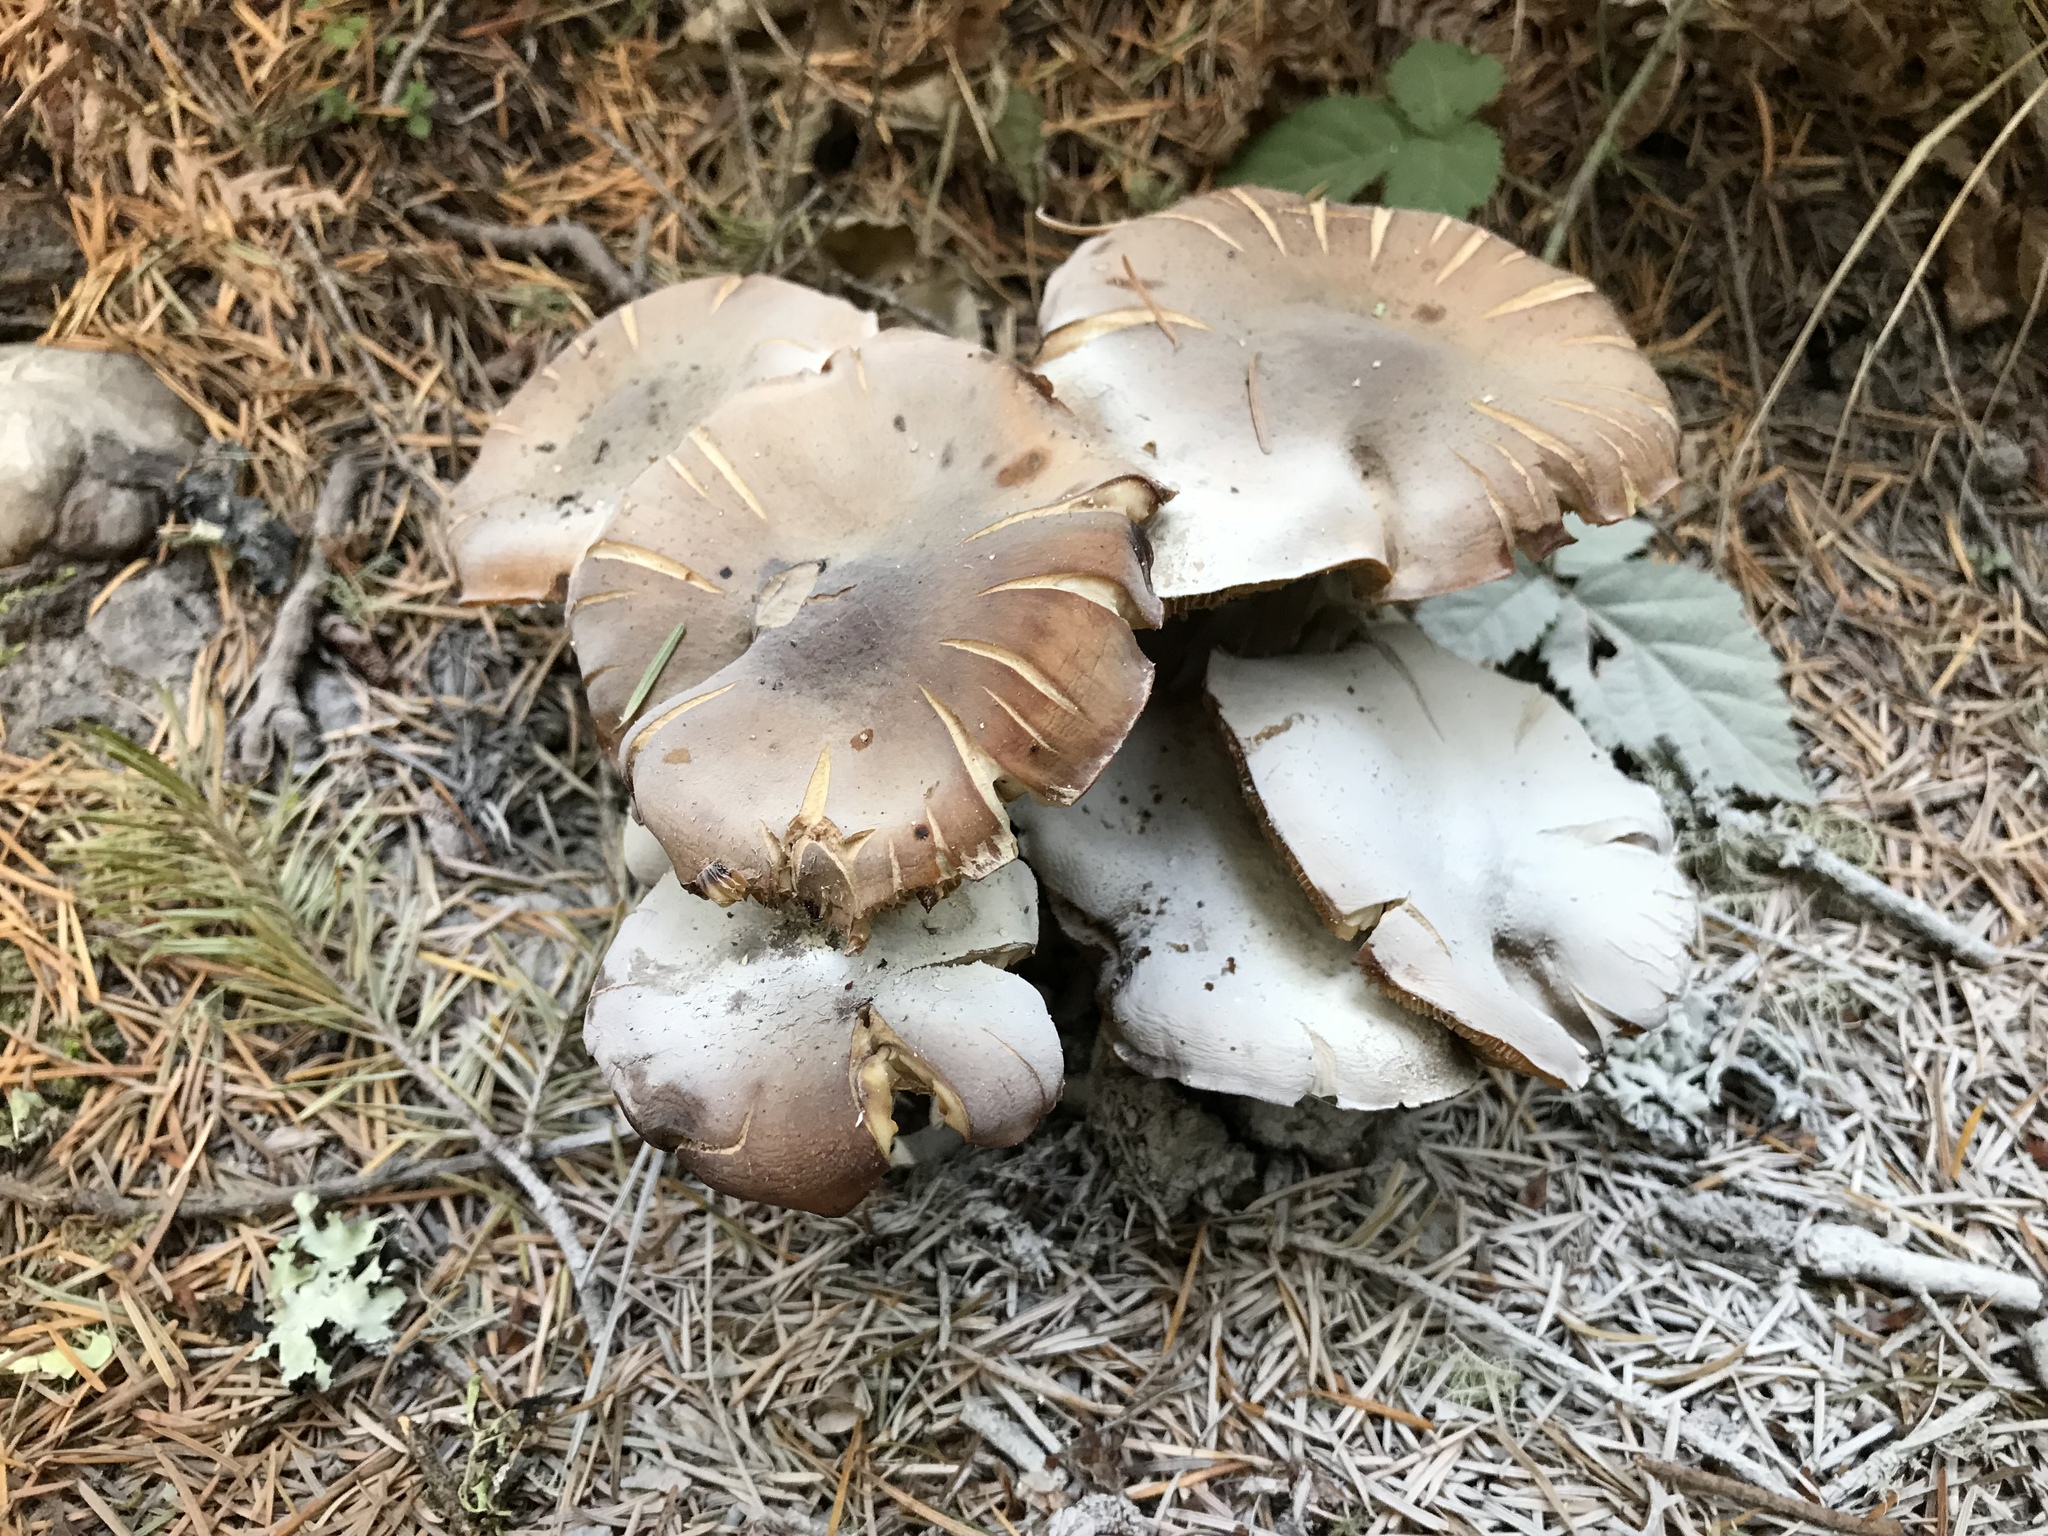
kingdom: Fungi
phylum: Basidiomycota
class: Agaricomycetes
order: Agaricales
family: Physalacriaceae
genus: Armillaria
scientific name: Armillaria mellea
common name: Honey fungus
